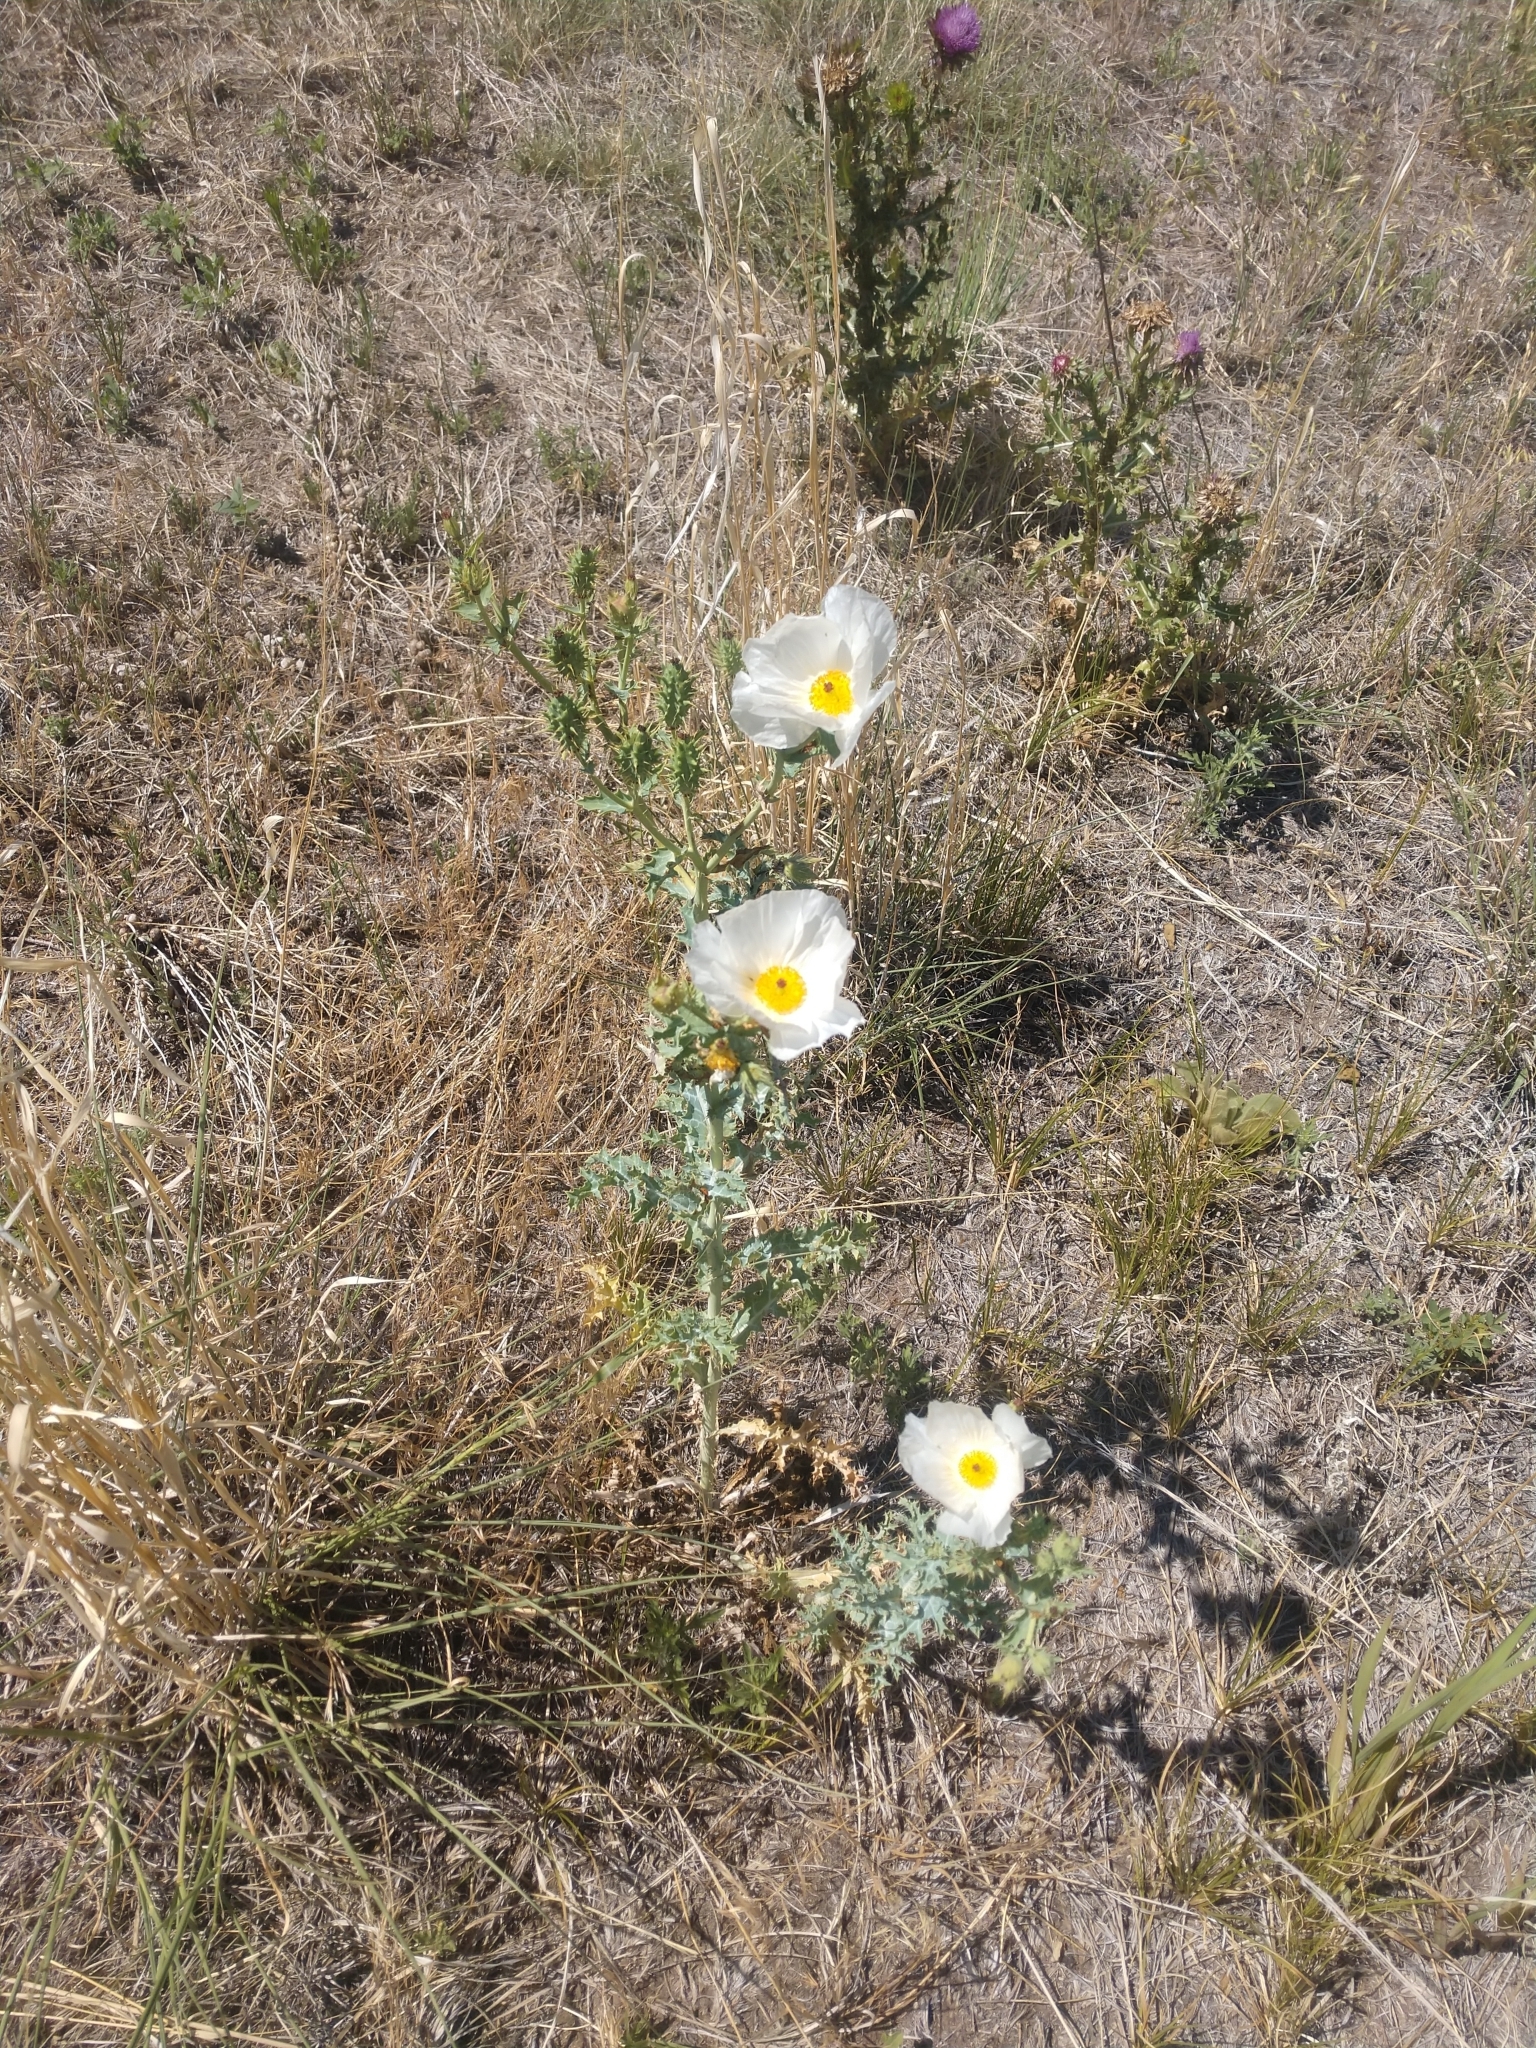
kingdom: Plantae
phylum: Tracheophyta
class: Magnoliopsida
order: Ranunculales
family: Papaveraceae
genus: Argemone
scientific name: Argemone polyanthemos
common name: Plains prickly-poppy
